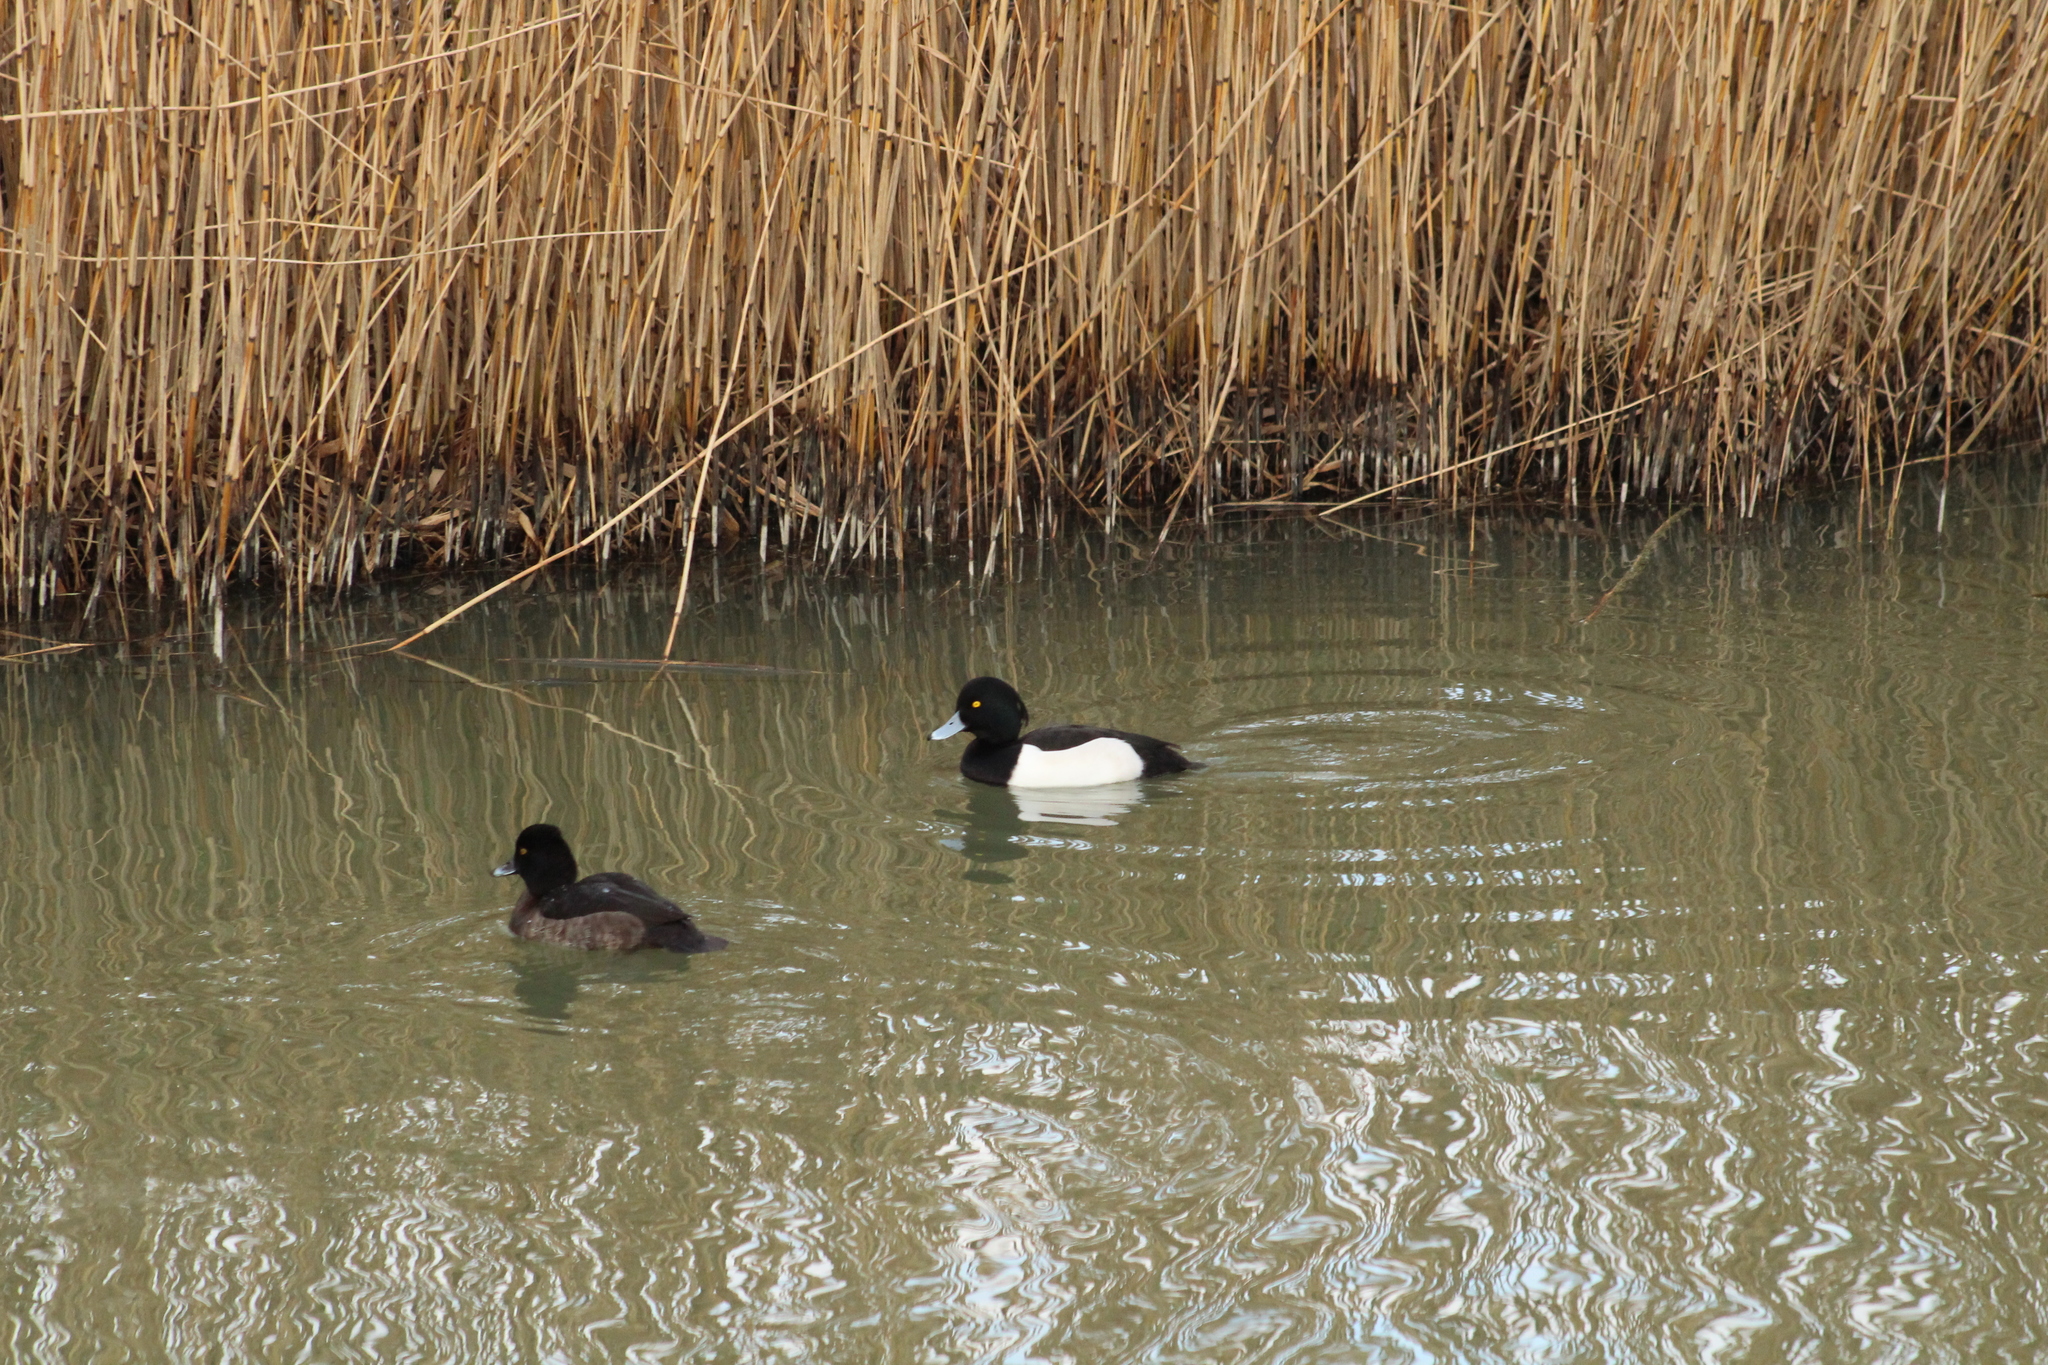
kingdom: Animalia
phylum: Chordata
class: Aves
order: Anseriformes
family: Anatidae
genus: Aythya
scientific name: Aythya fuligula
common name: Tufted duck
